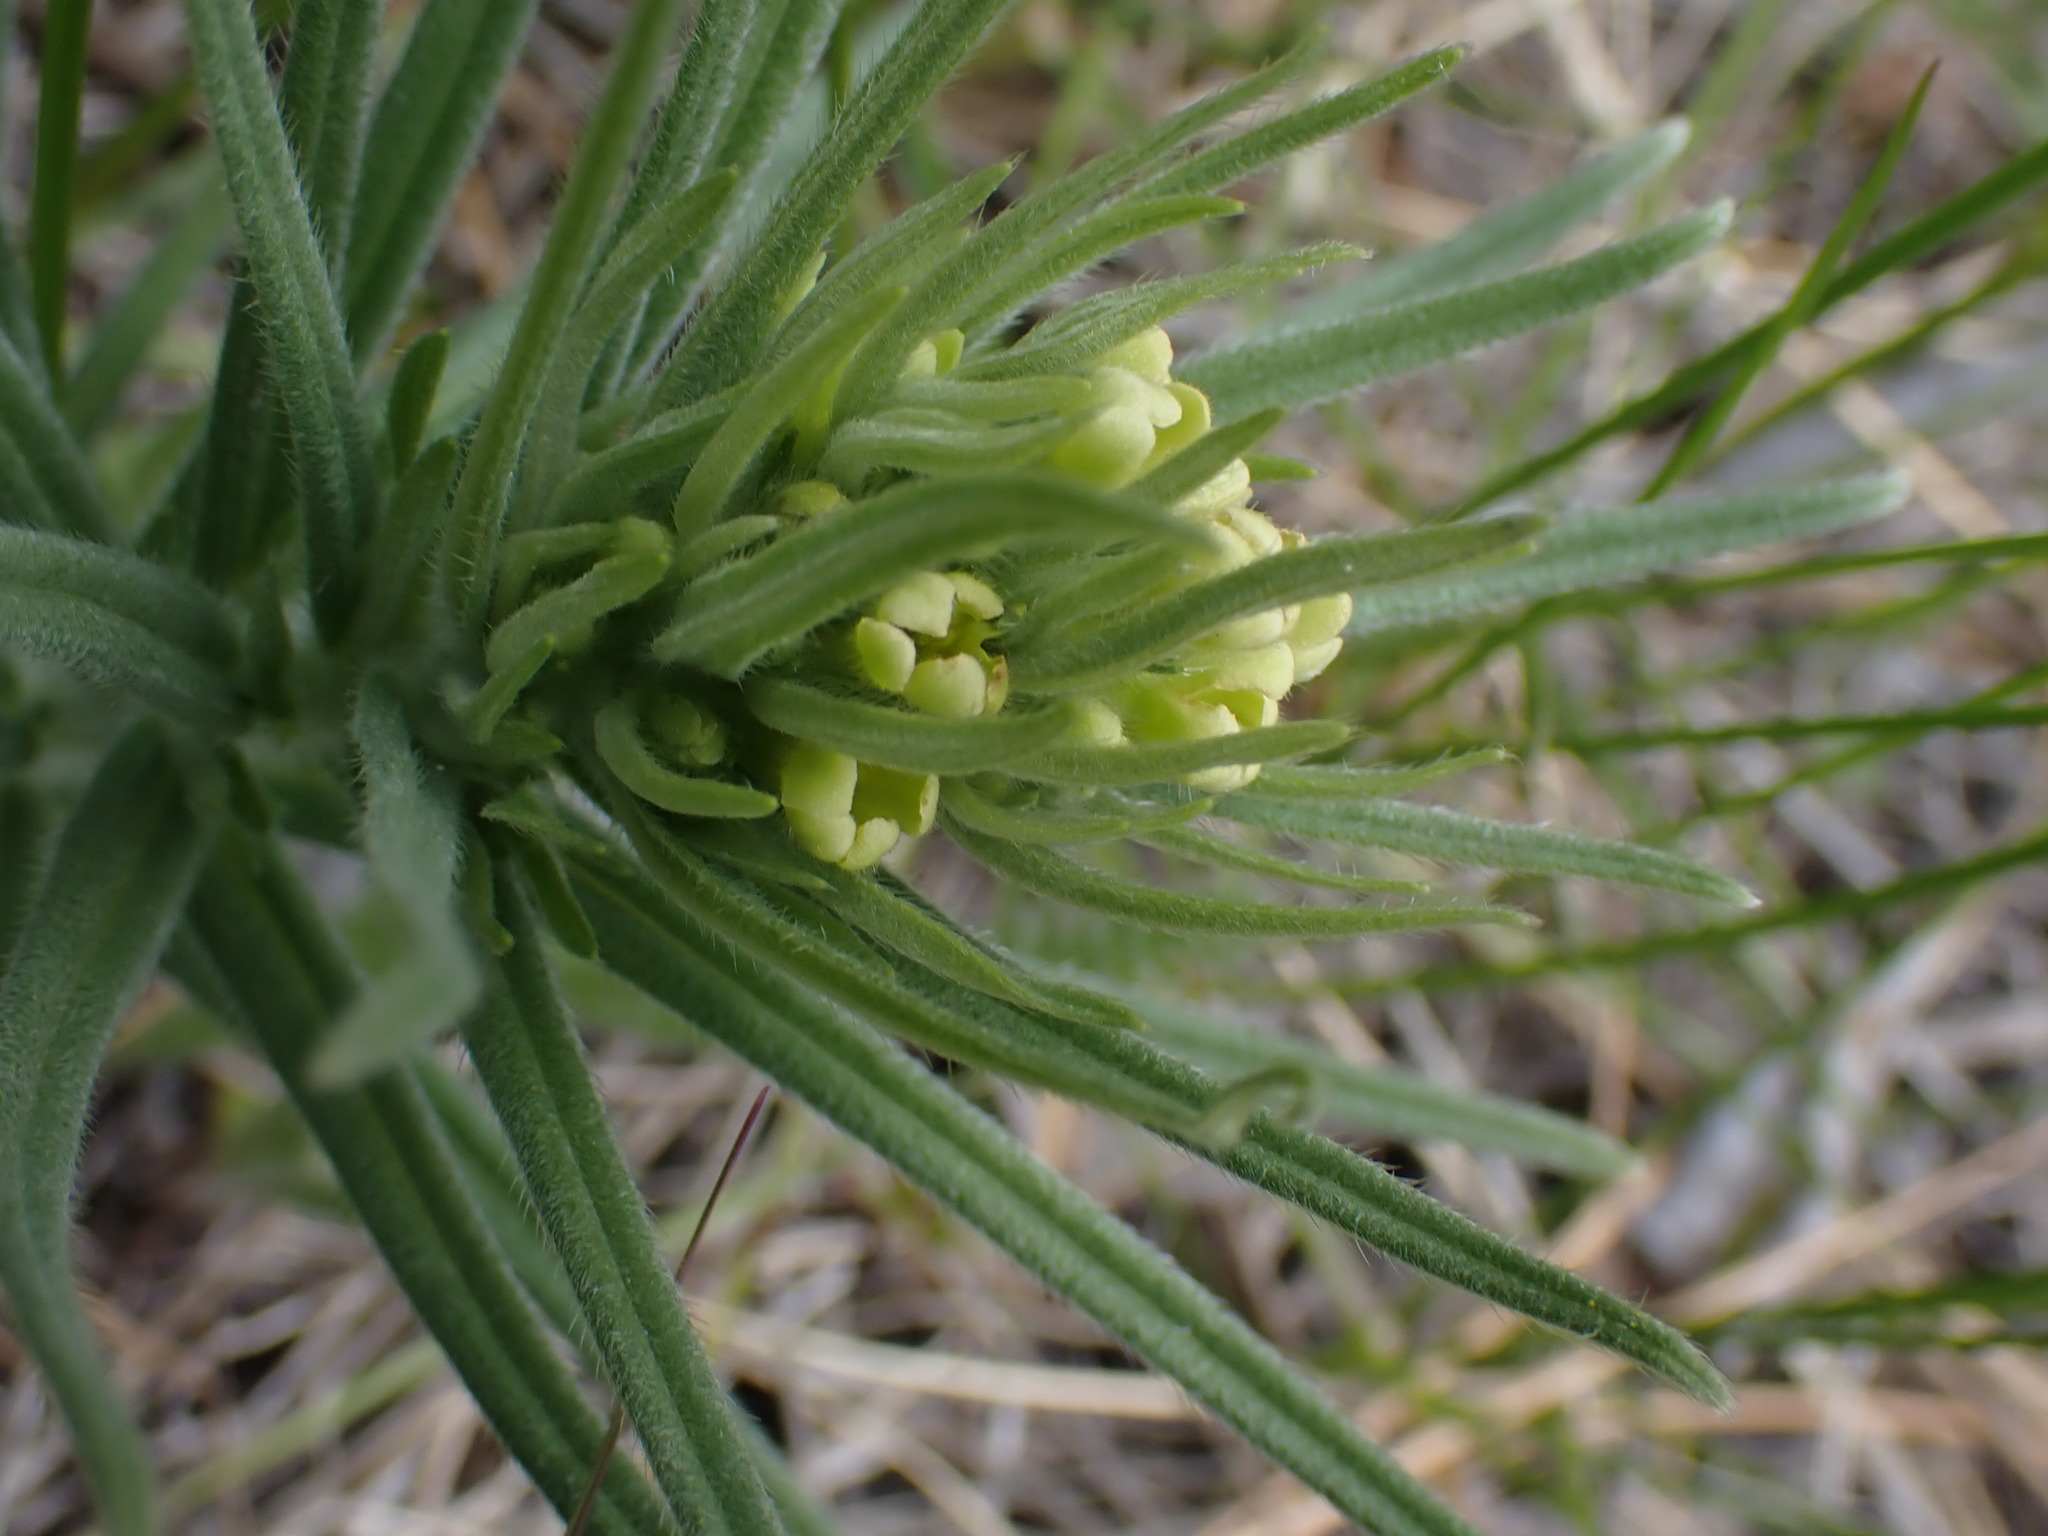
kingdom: Plantae
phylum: Tracheophyta
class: Magnoliopsida
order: Boraginales
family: Boraginaceae
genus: Lithospermum
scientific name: Lithospermum ruderale
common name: Western gromwell
